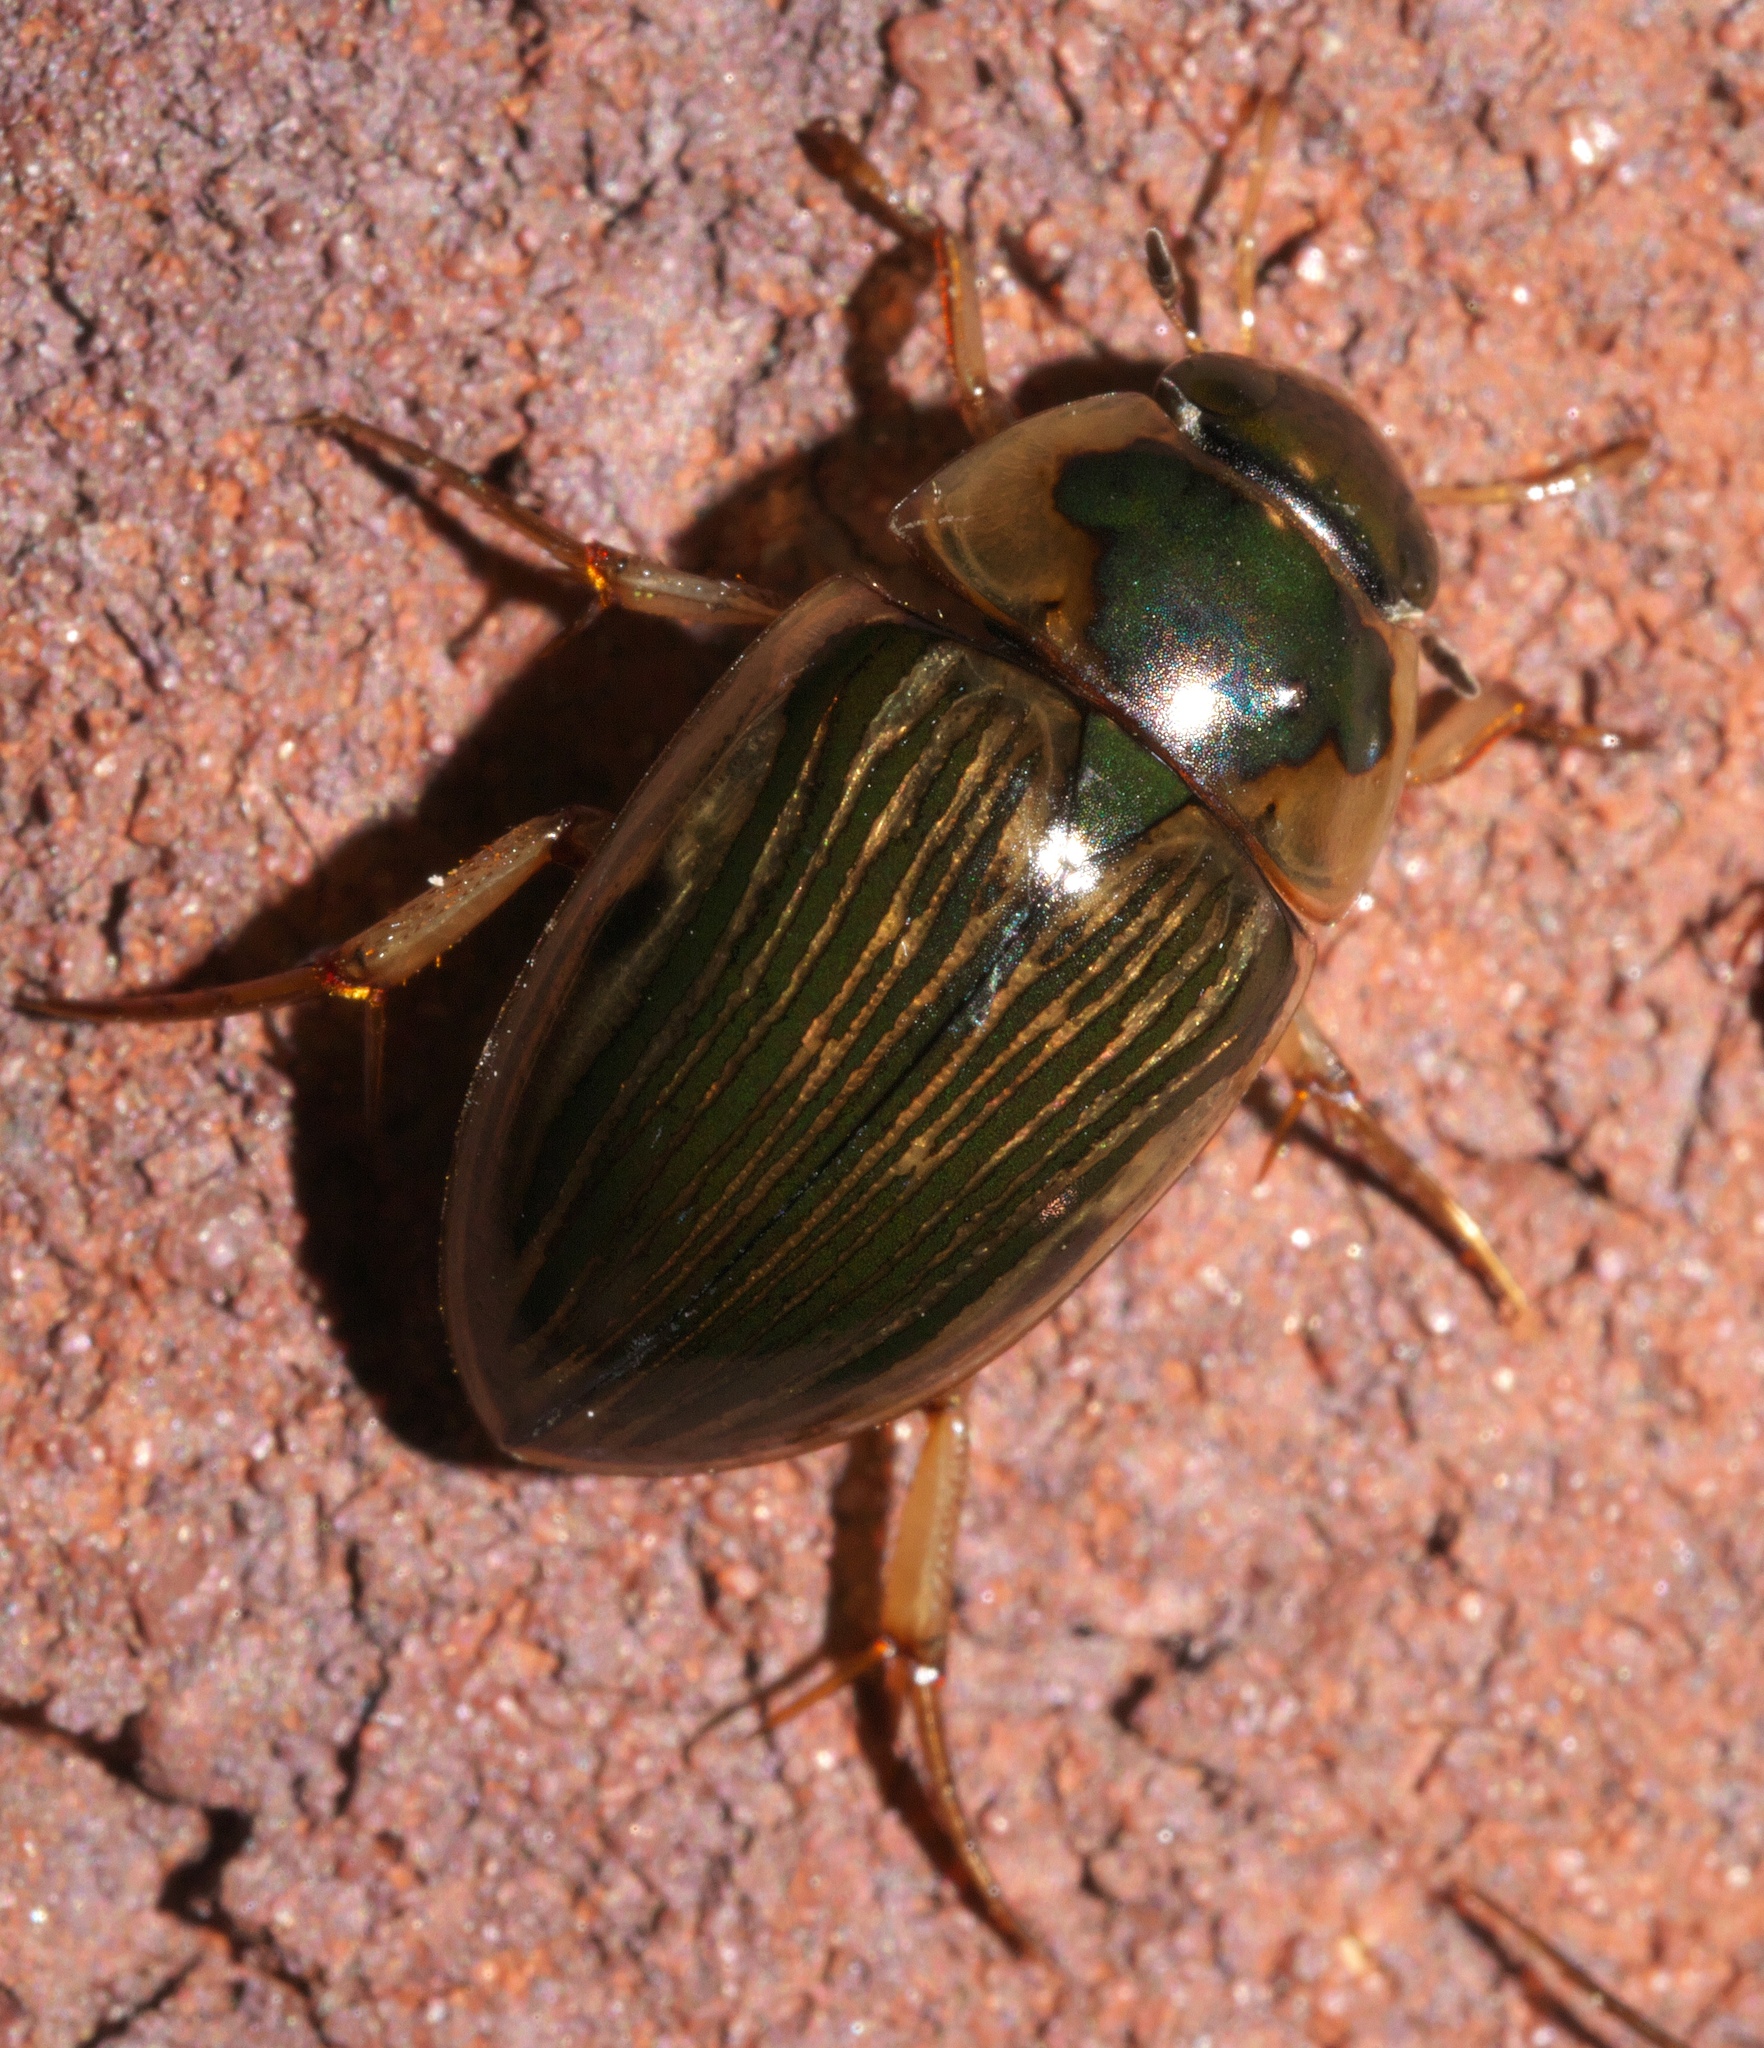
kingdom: Animalia
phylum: Arthropoda
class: Insecta
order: Coleoptera
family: Hydrophilidae
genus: Tropisternus
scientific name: Tropisternus collaris
